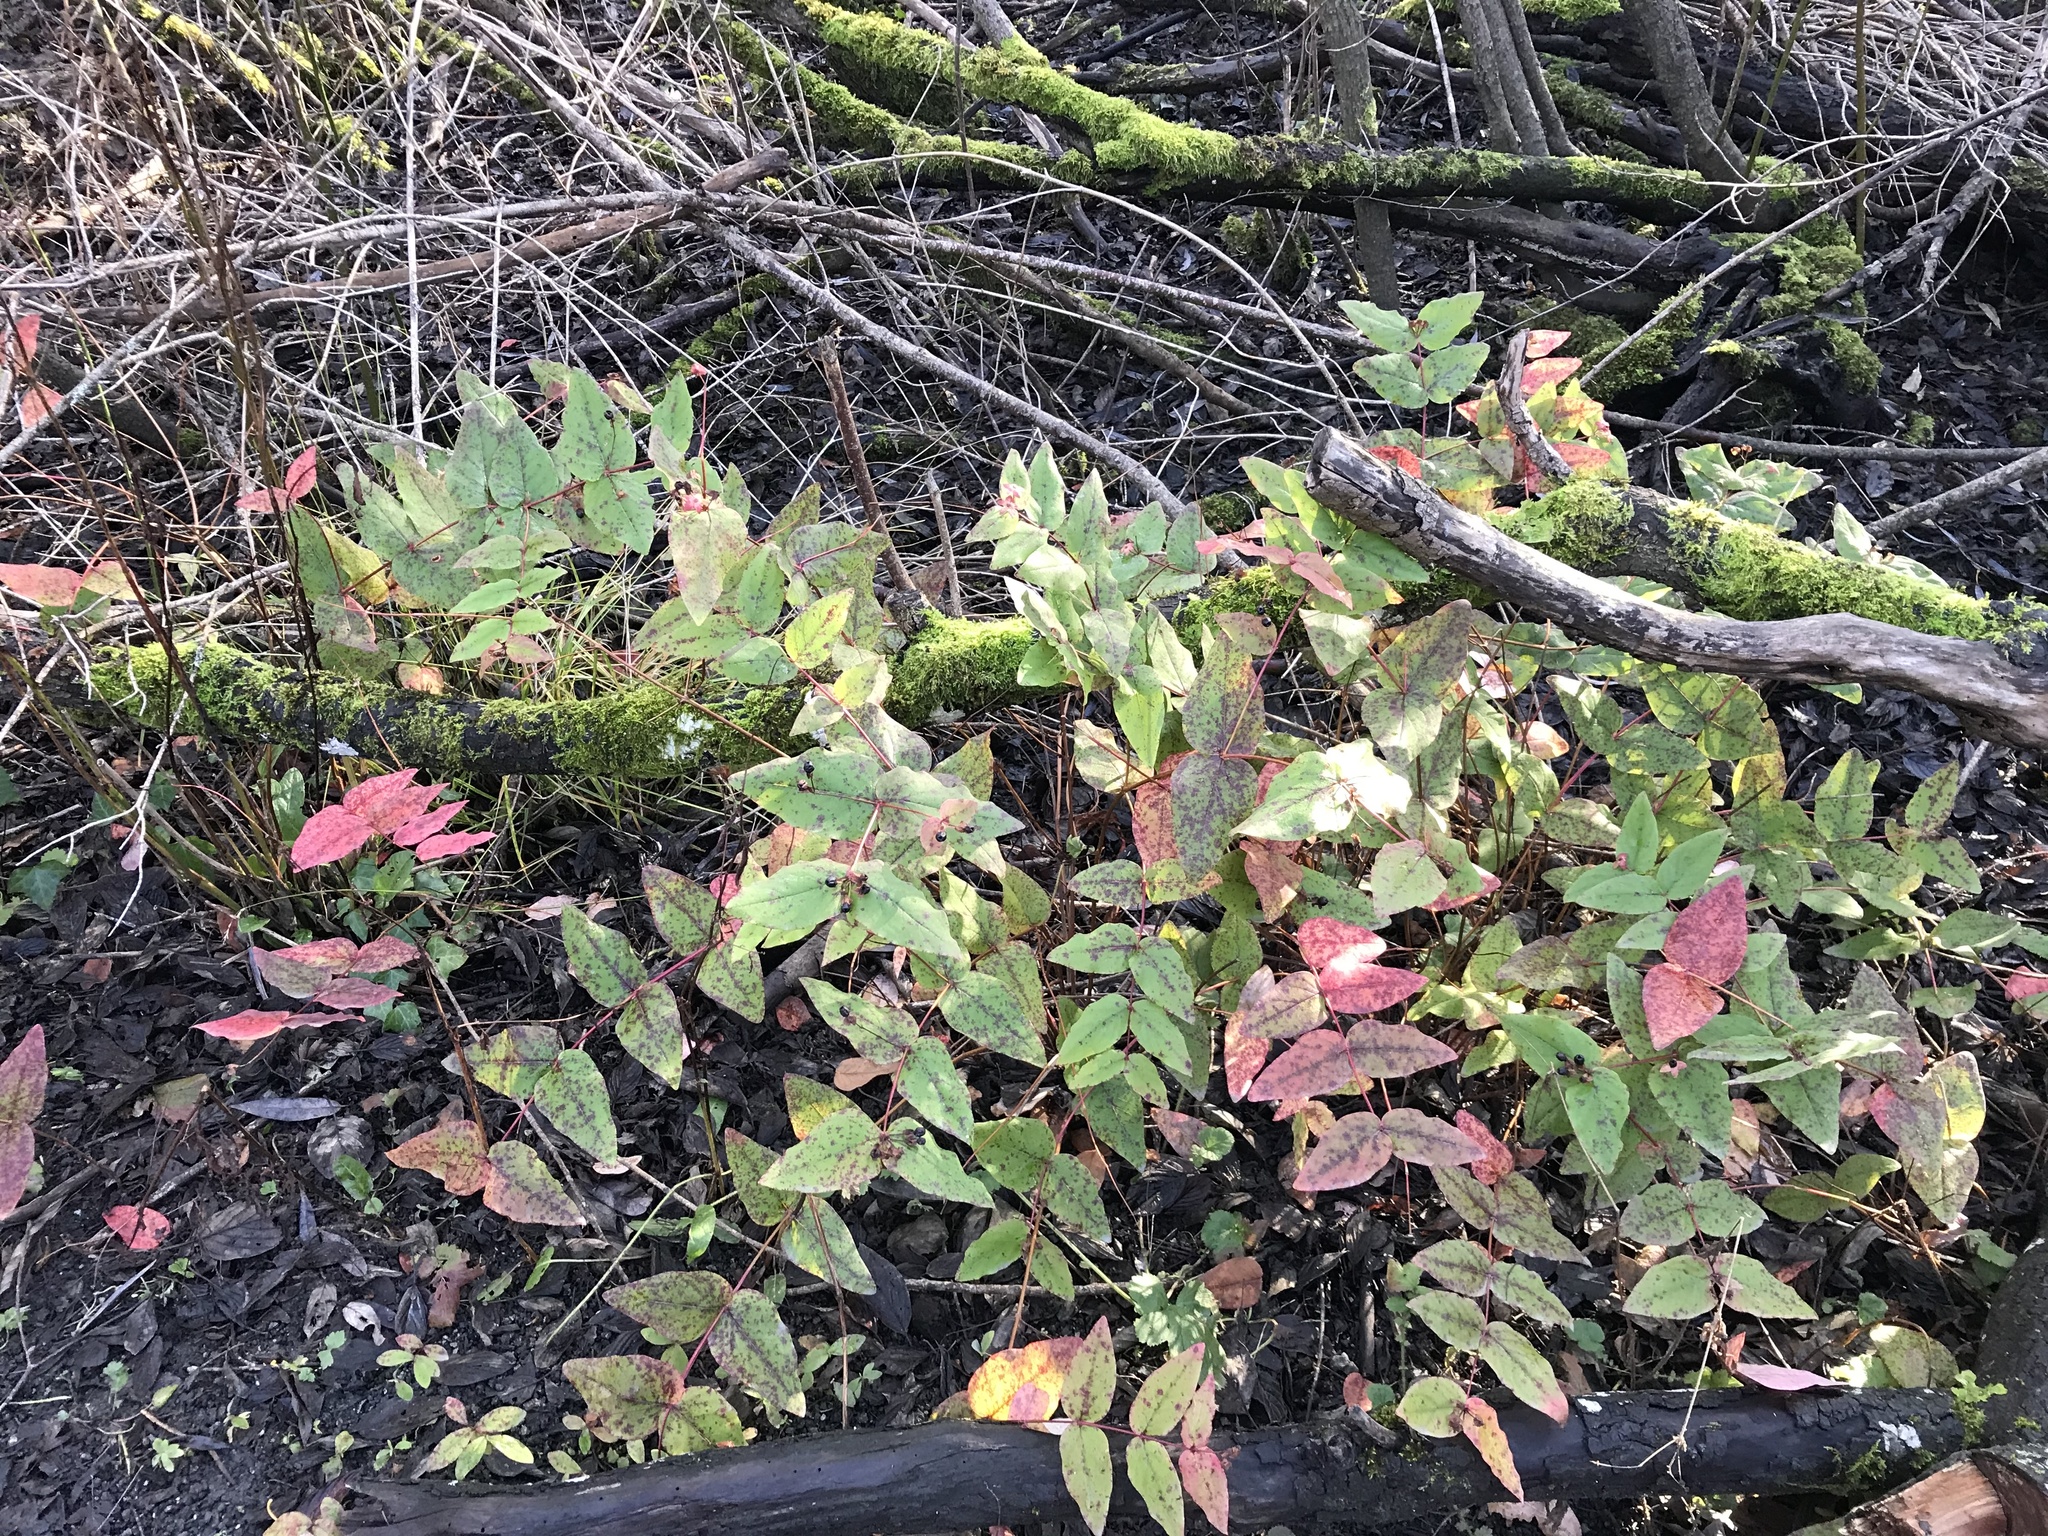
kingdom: Plantae
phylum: Tracheophyta
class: Magnoliopsida
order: Malpighiales
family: Hypericaceae
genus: Hypericum
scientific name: Hypericum androsaemum
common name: Sweet-amber
